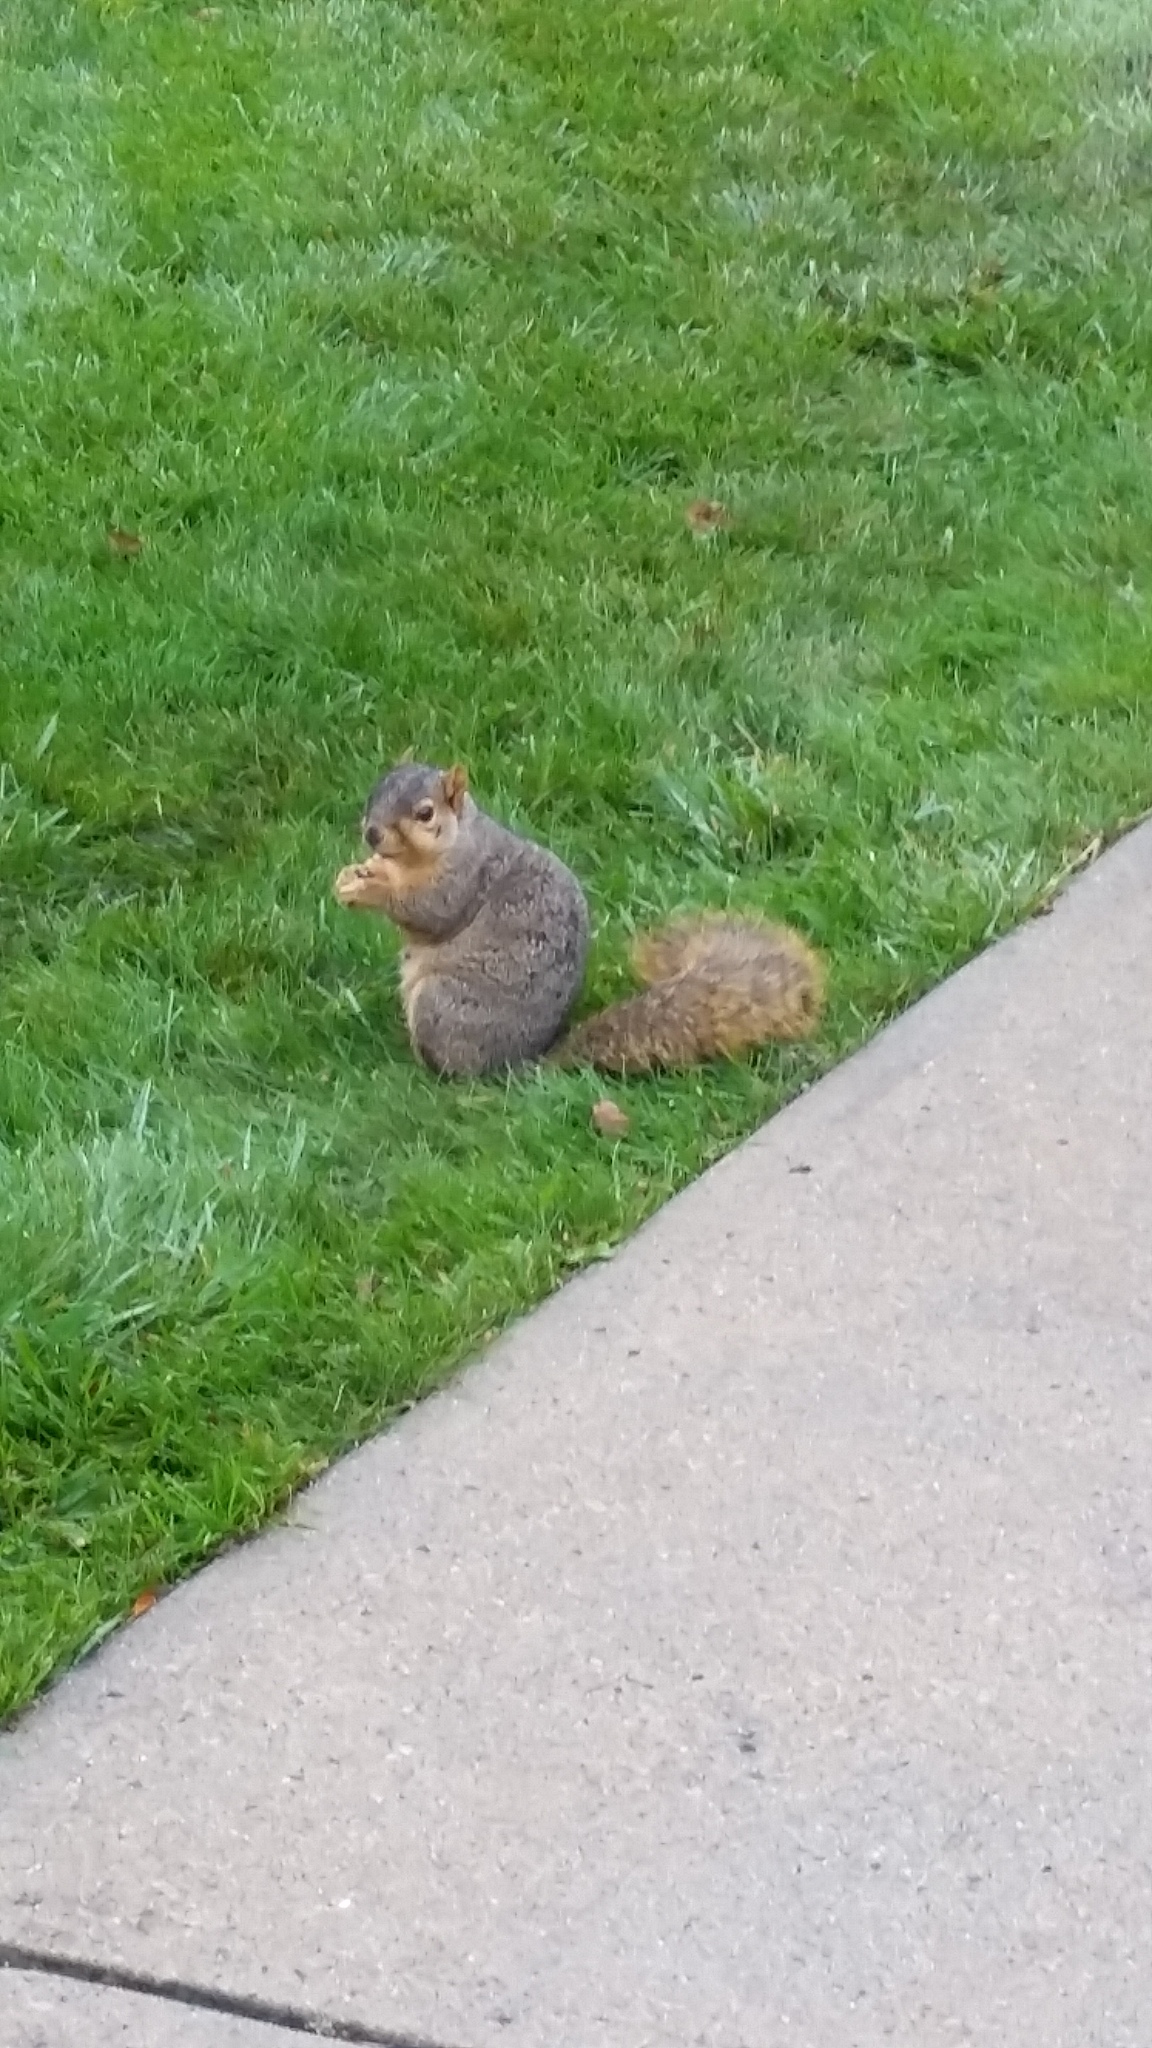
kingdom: Animalia
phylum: Chordata
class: Mammalia
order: Rodentia
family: Sciuridae
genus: Sciurus
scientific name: Sciurus niger
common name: Fox squirrel
